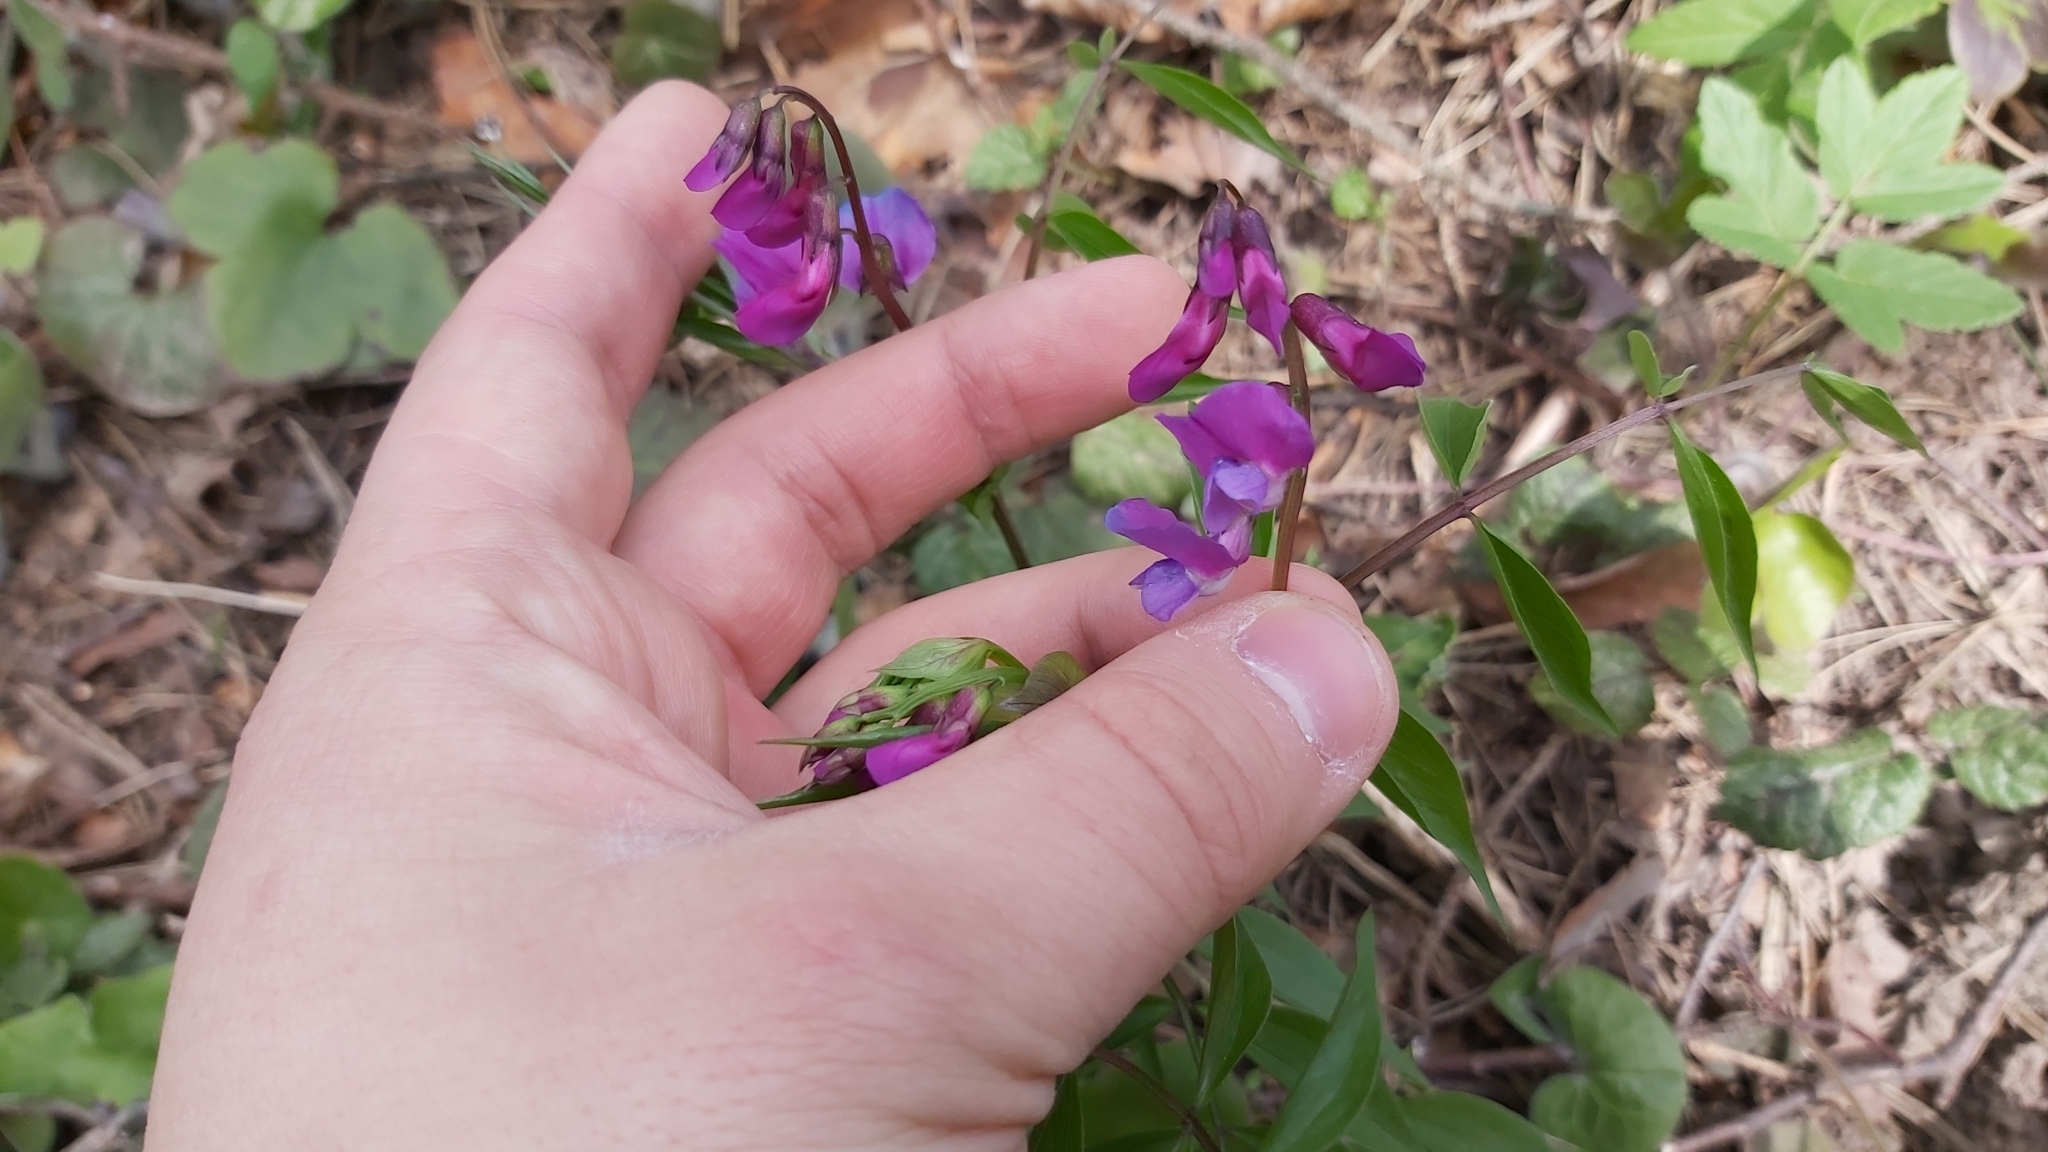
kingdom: Plantae
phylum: Tracheophyta
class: Magnoliopsida
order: Fabales
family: Fabaceae
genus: Lathyrus
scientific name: Lathyrus vernus
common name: Spring pea
